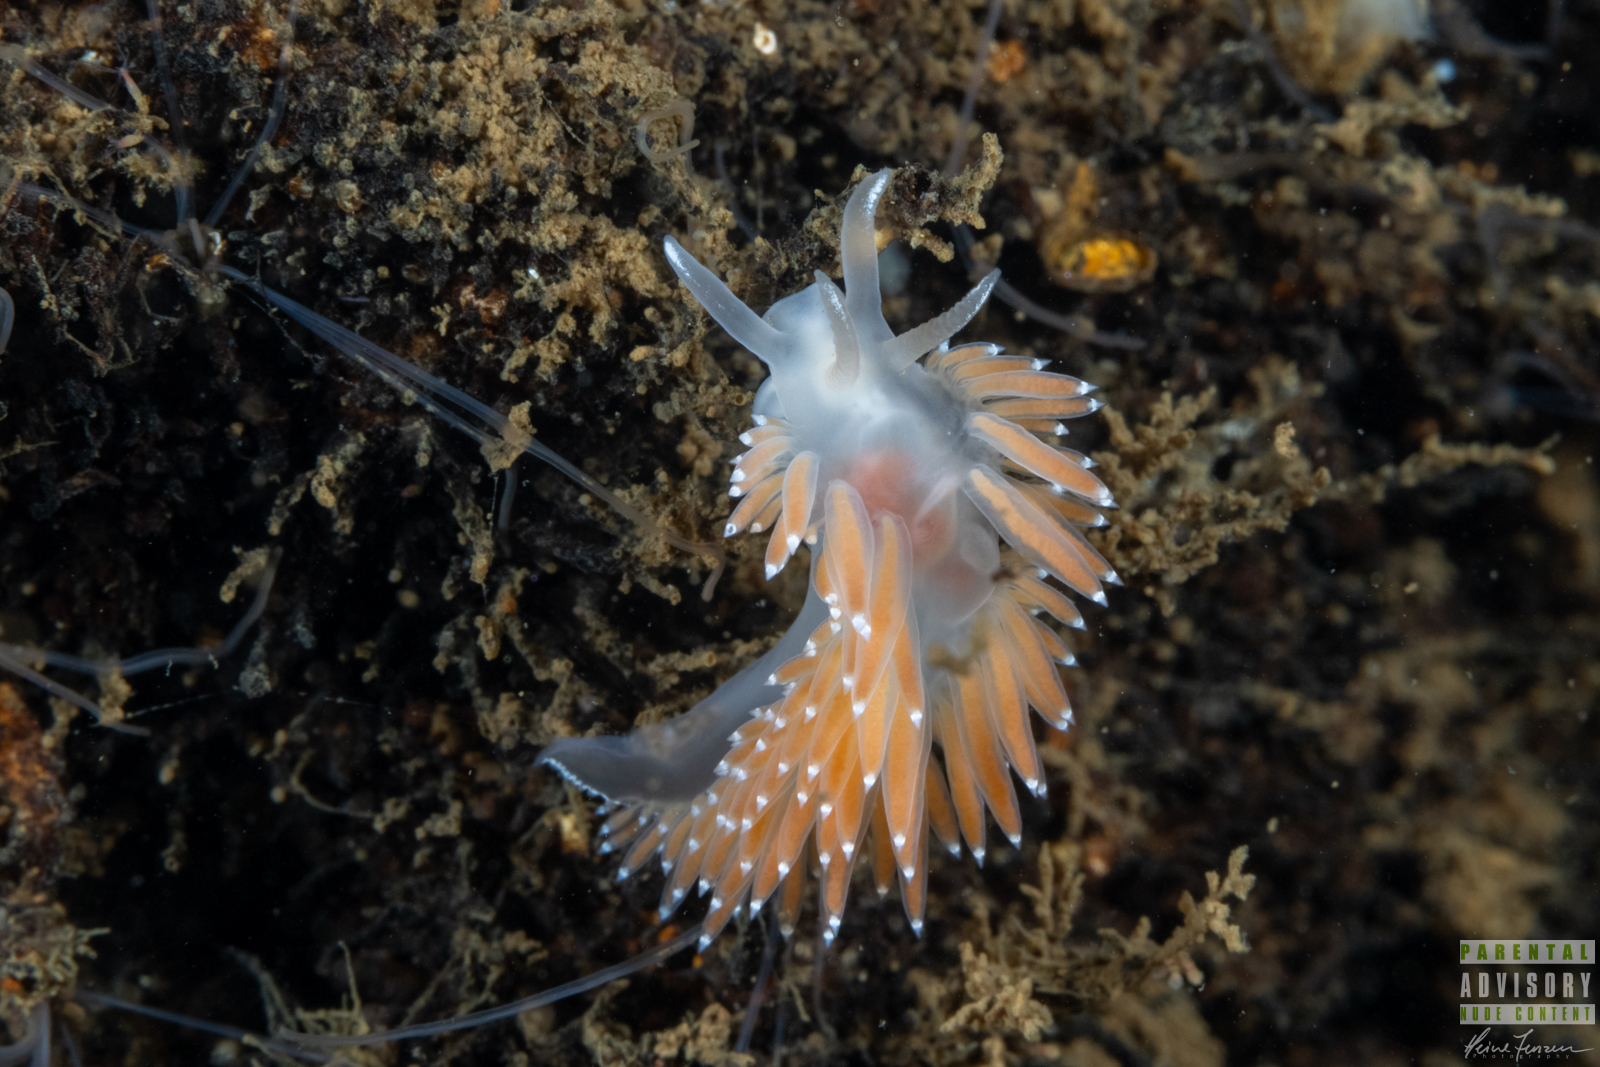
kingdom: Animalia
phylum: Mollusca
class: Gastropoda
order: Nudibranchia
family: Coryphellidae
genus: Coryphella
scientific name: Coryphella verrucosa
